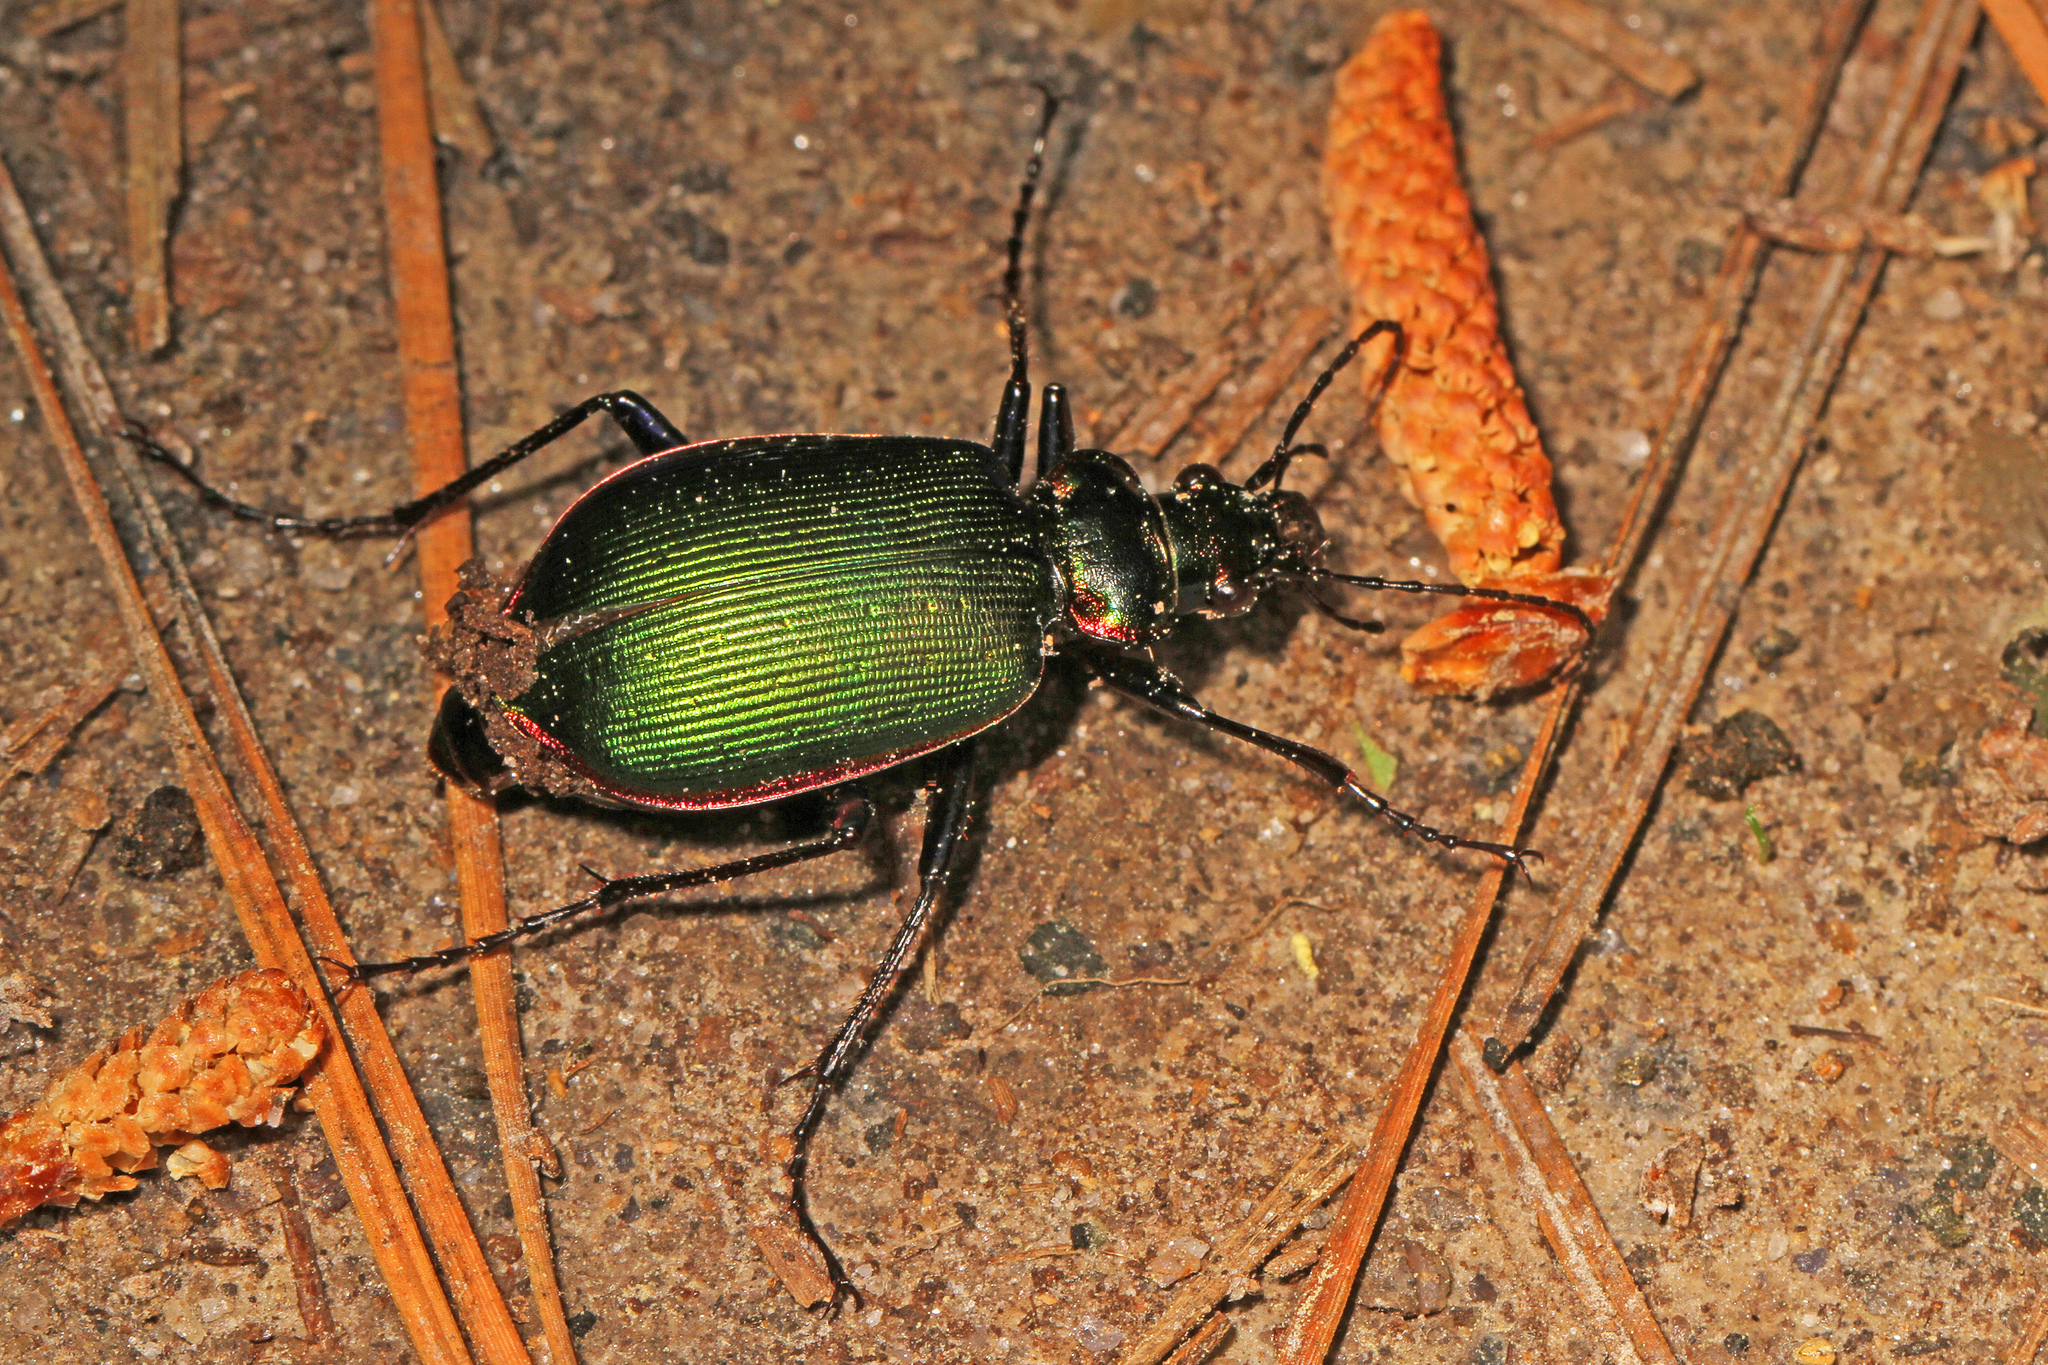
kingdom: Animalia
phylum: Arthropoda
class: Insecta
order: Coleoptera
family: Carabidae
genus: Calosoma
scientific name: Calosoma scrutator
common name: Fiery searcher beetle
